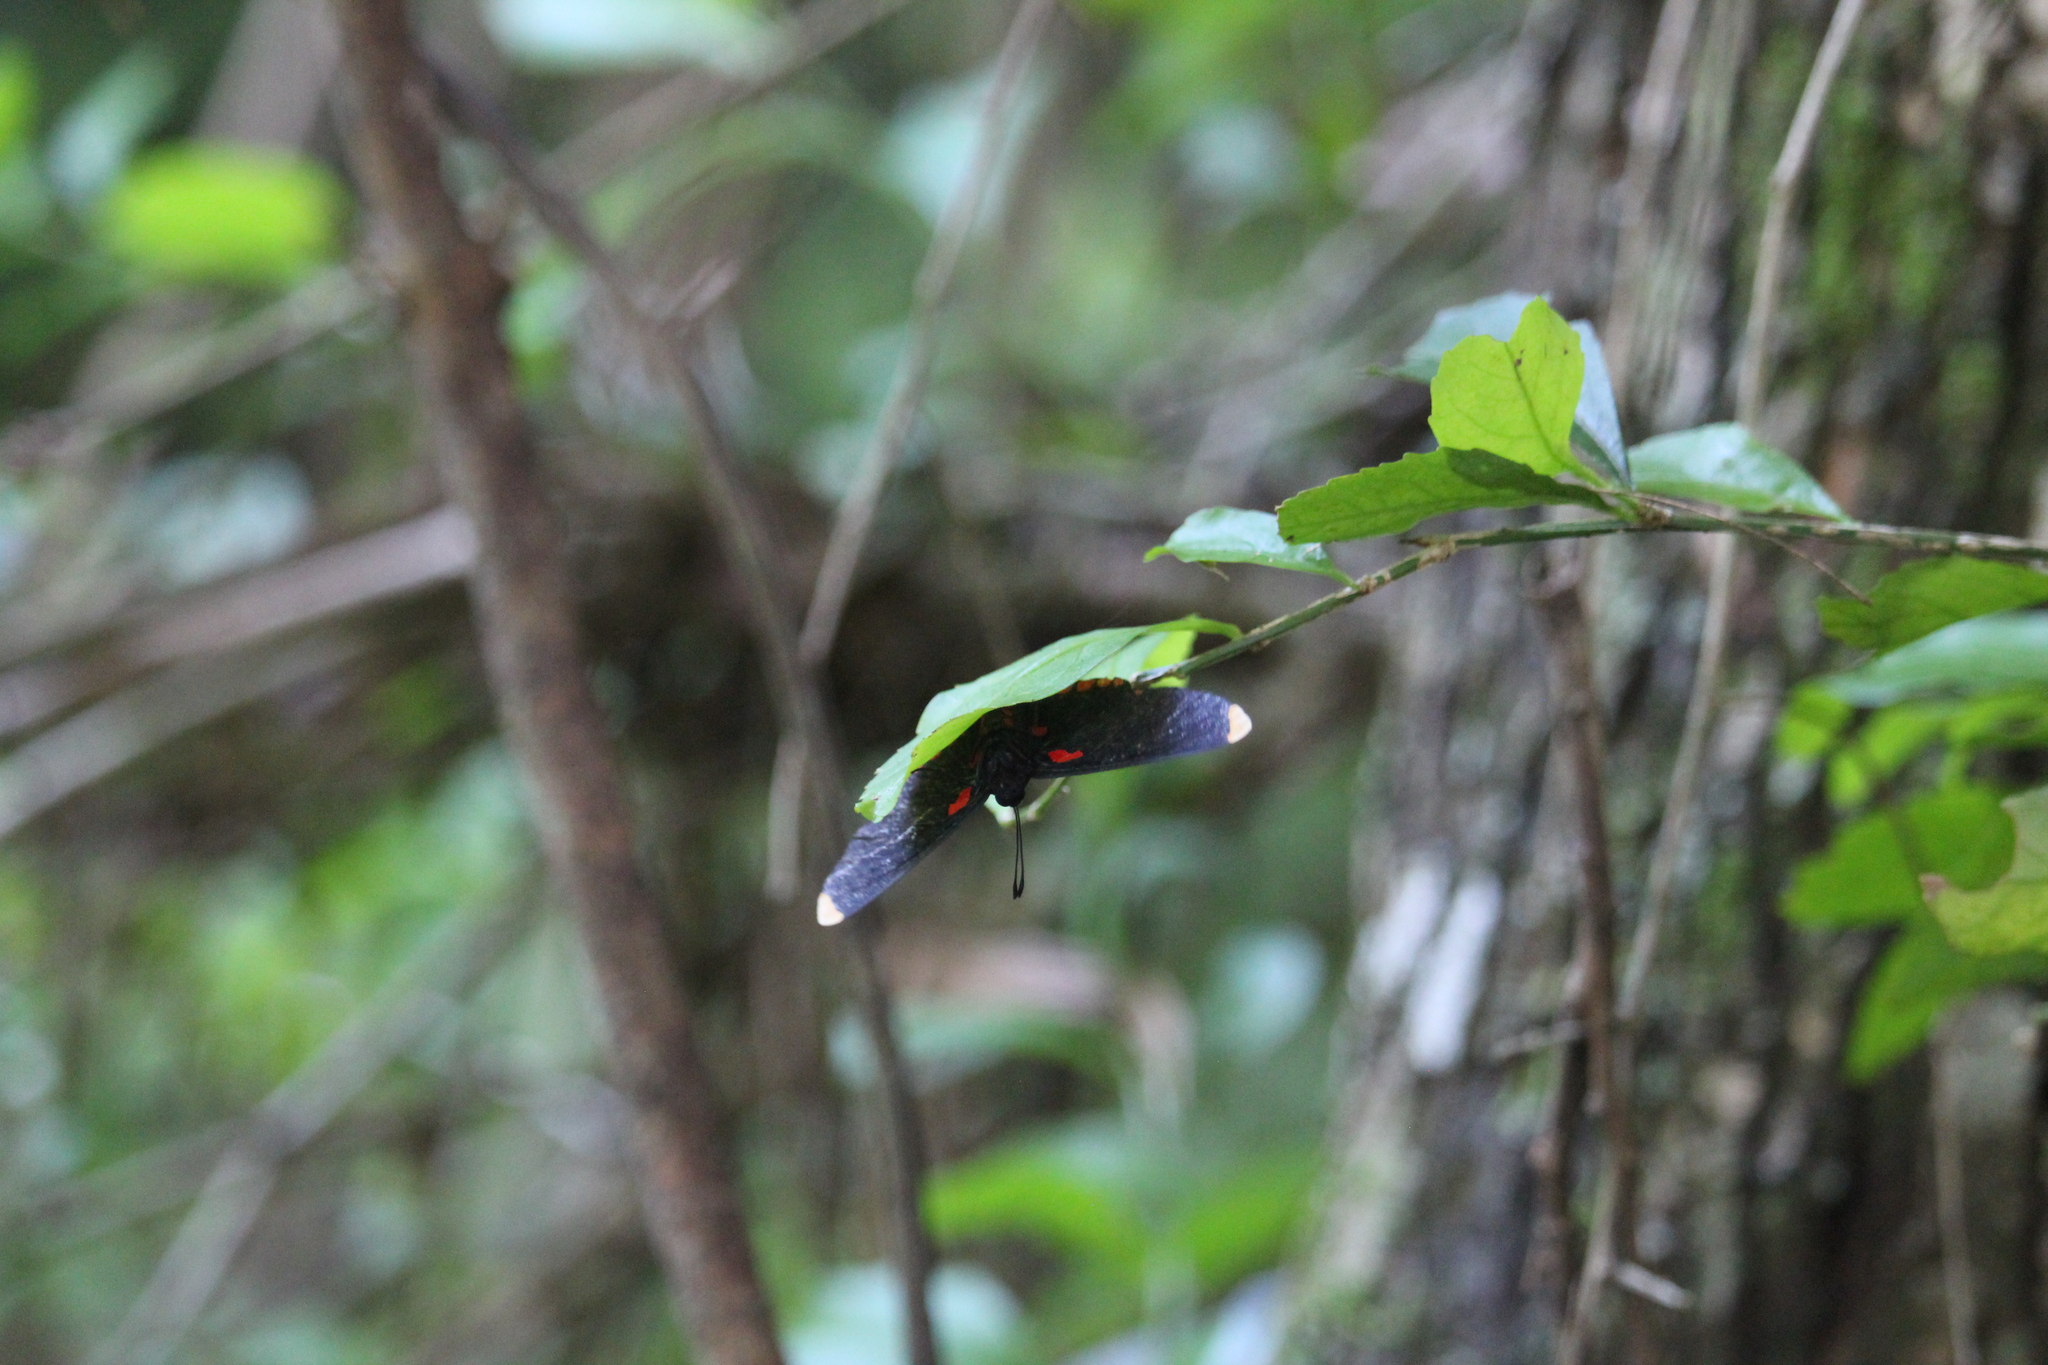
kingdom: Animalia
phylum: Arthropoda
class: Insecta
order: Lepidoptera
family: Lycaenidae
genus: Melanis
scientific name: Melanis pixe
